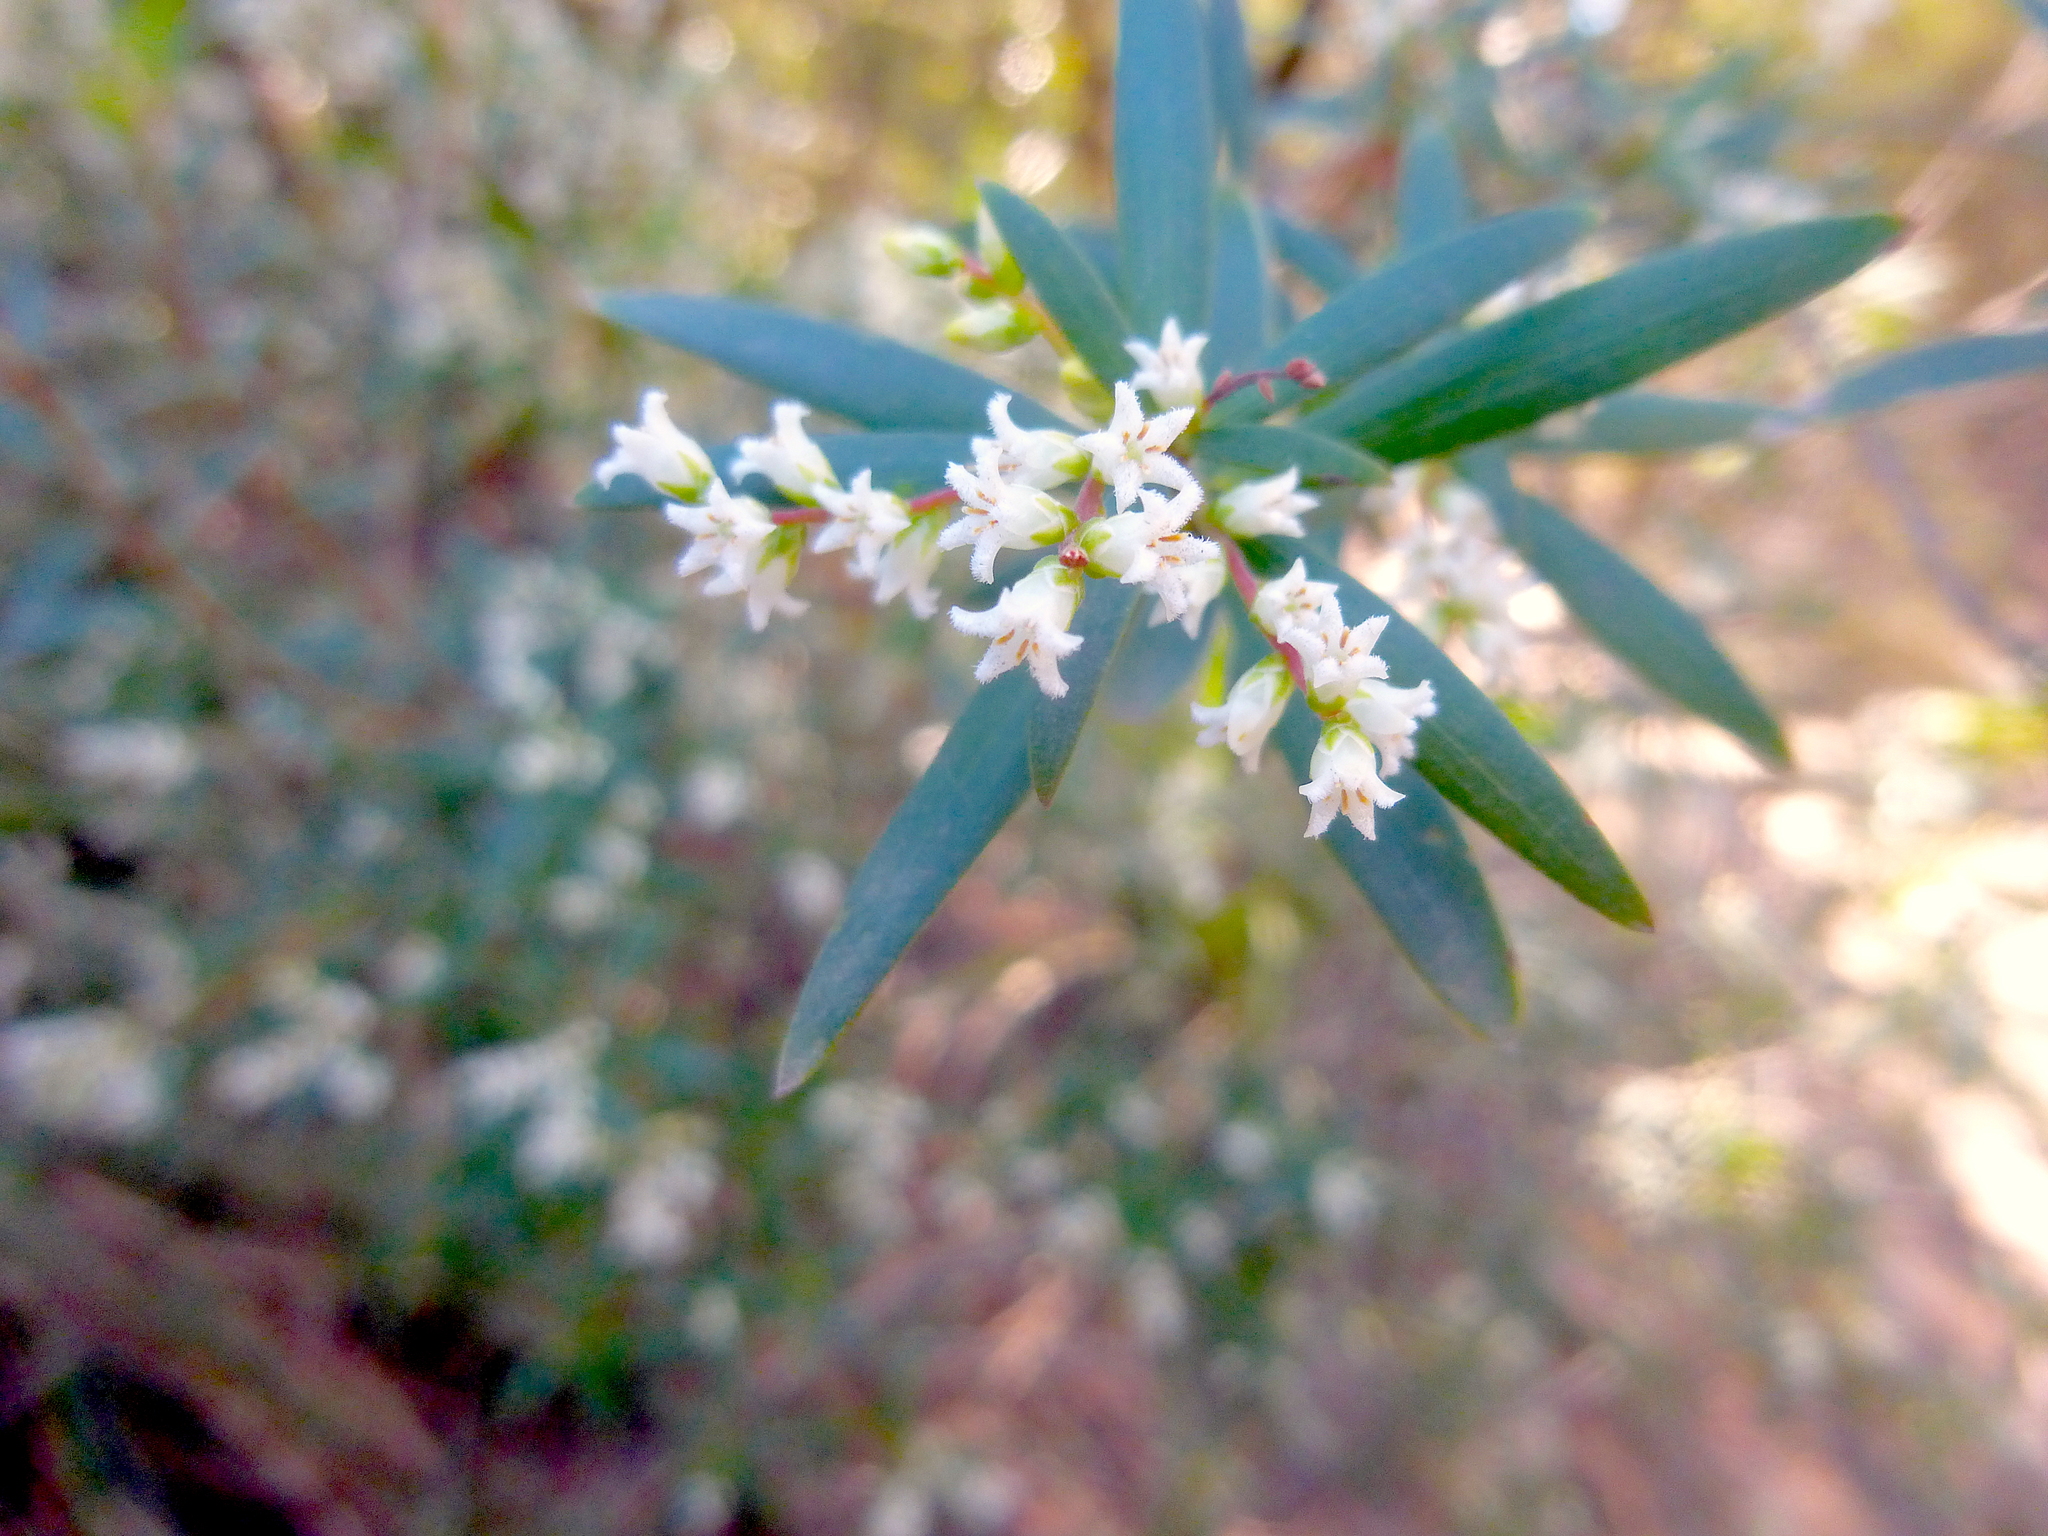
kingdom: Plantae
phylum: Tracheophyta
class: Magnoliopsida
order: Ericales
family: Ericaceae
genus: Leucopogon
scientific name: Leucopogon lanceolatus
